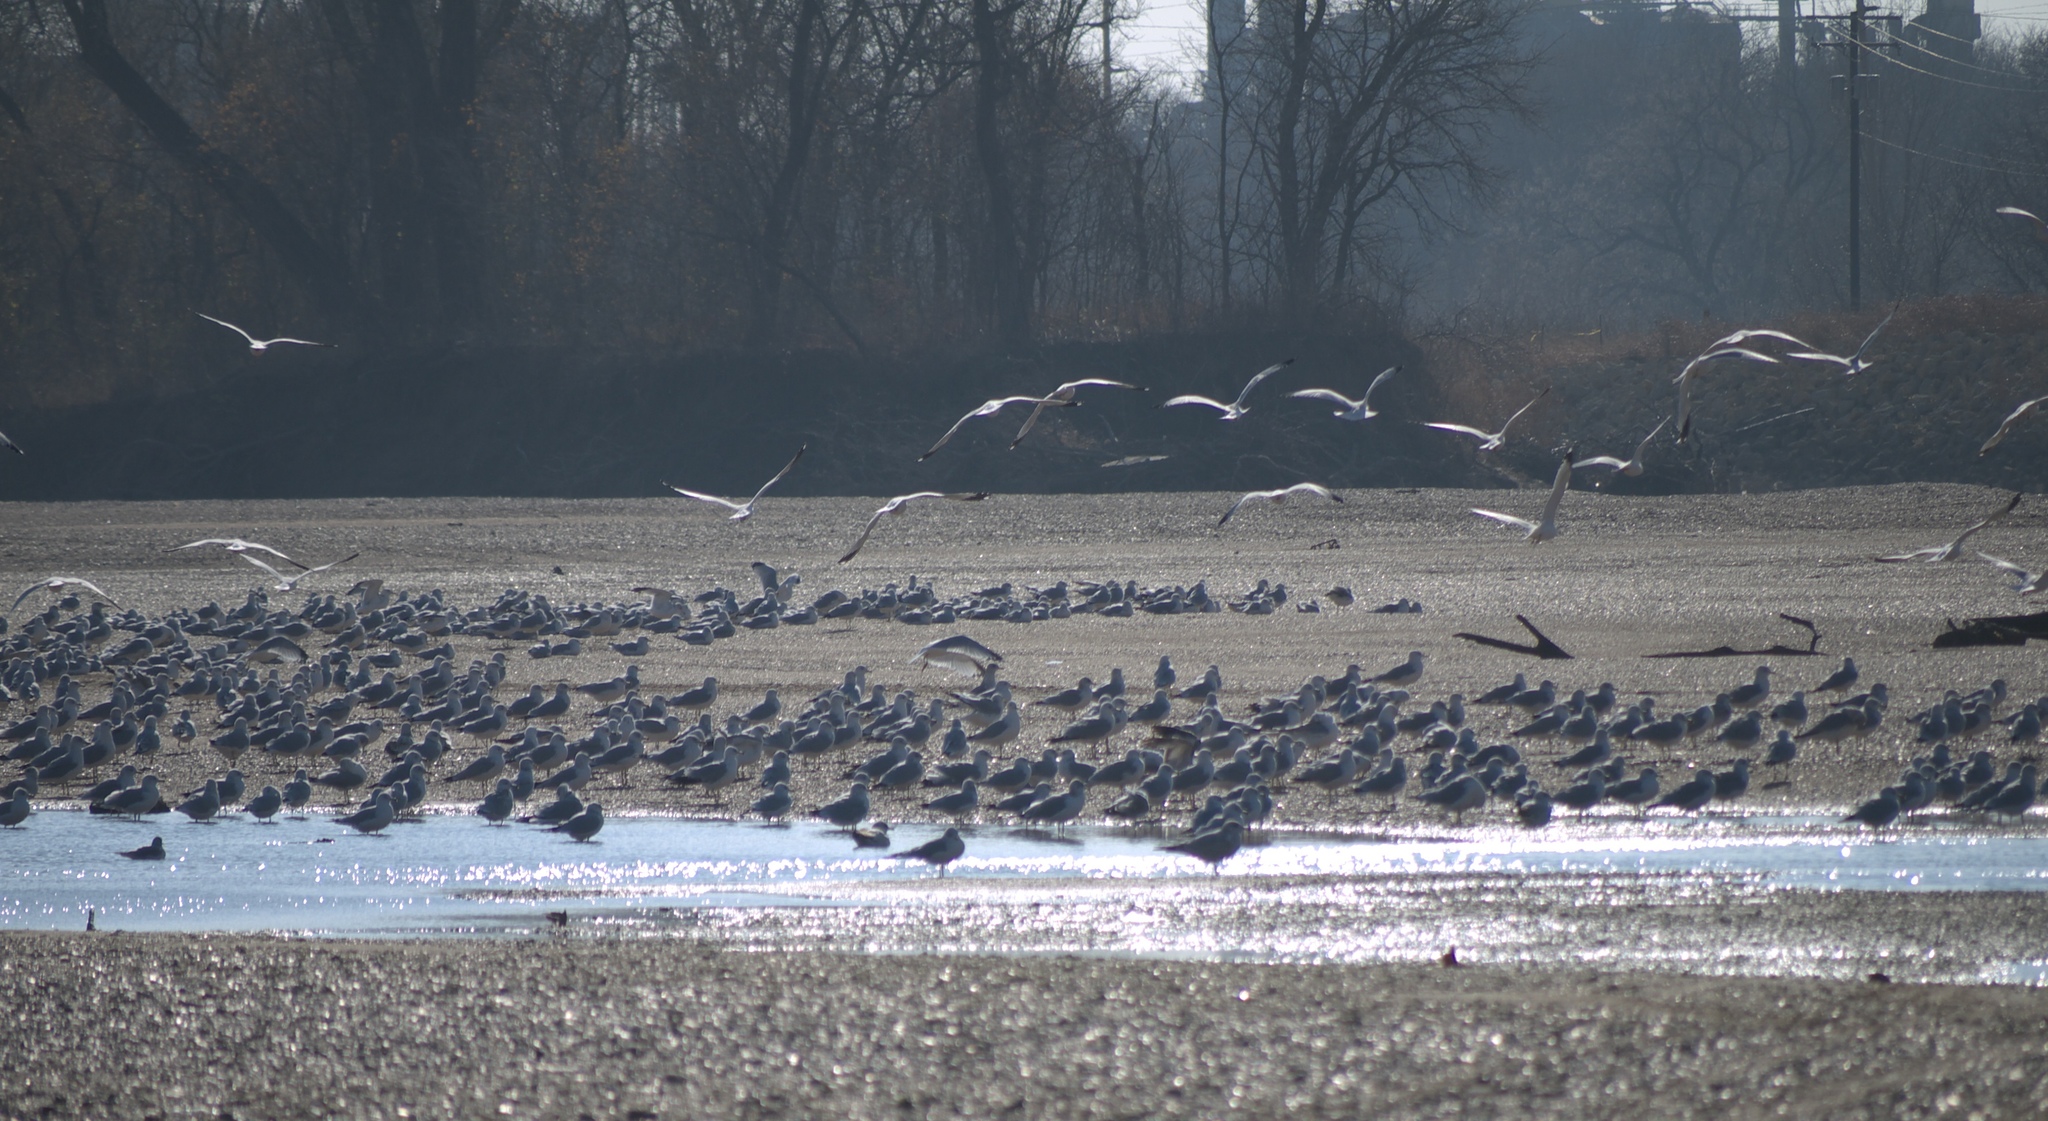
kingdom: Animalia
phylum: Chordata
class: Aves
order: Charadriiformes
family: Laridae
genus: Larus
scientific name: Larus delawarensis
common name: Ring-billed gull
